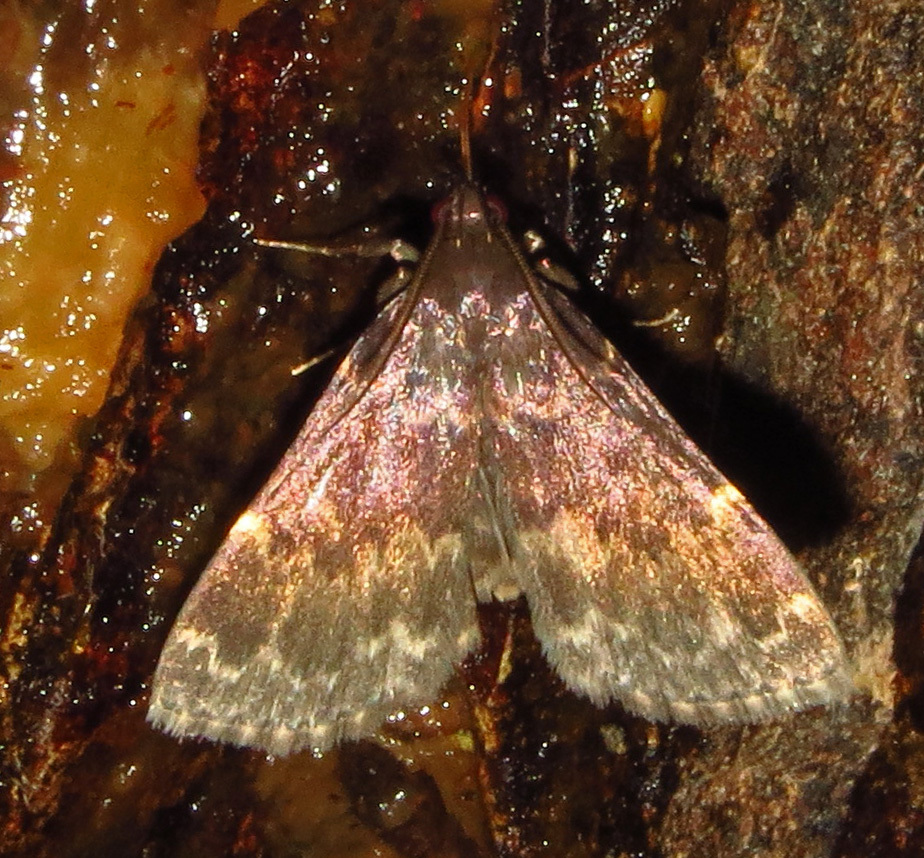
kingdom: Animalia
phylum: Arthropoda
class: Insecta
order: Lepidoptera
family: Erebidae
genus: Idia
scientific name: Idia lubricalis
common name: Twin-striped tabby
